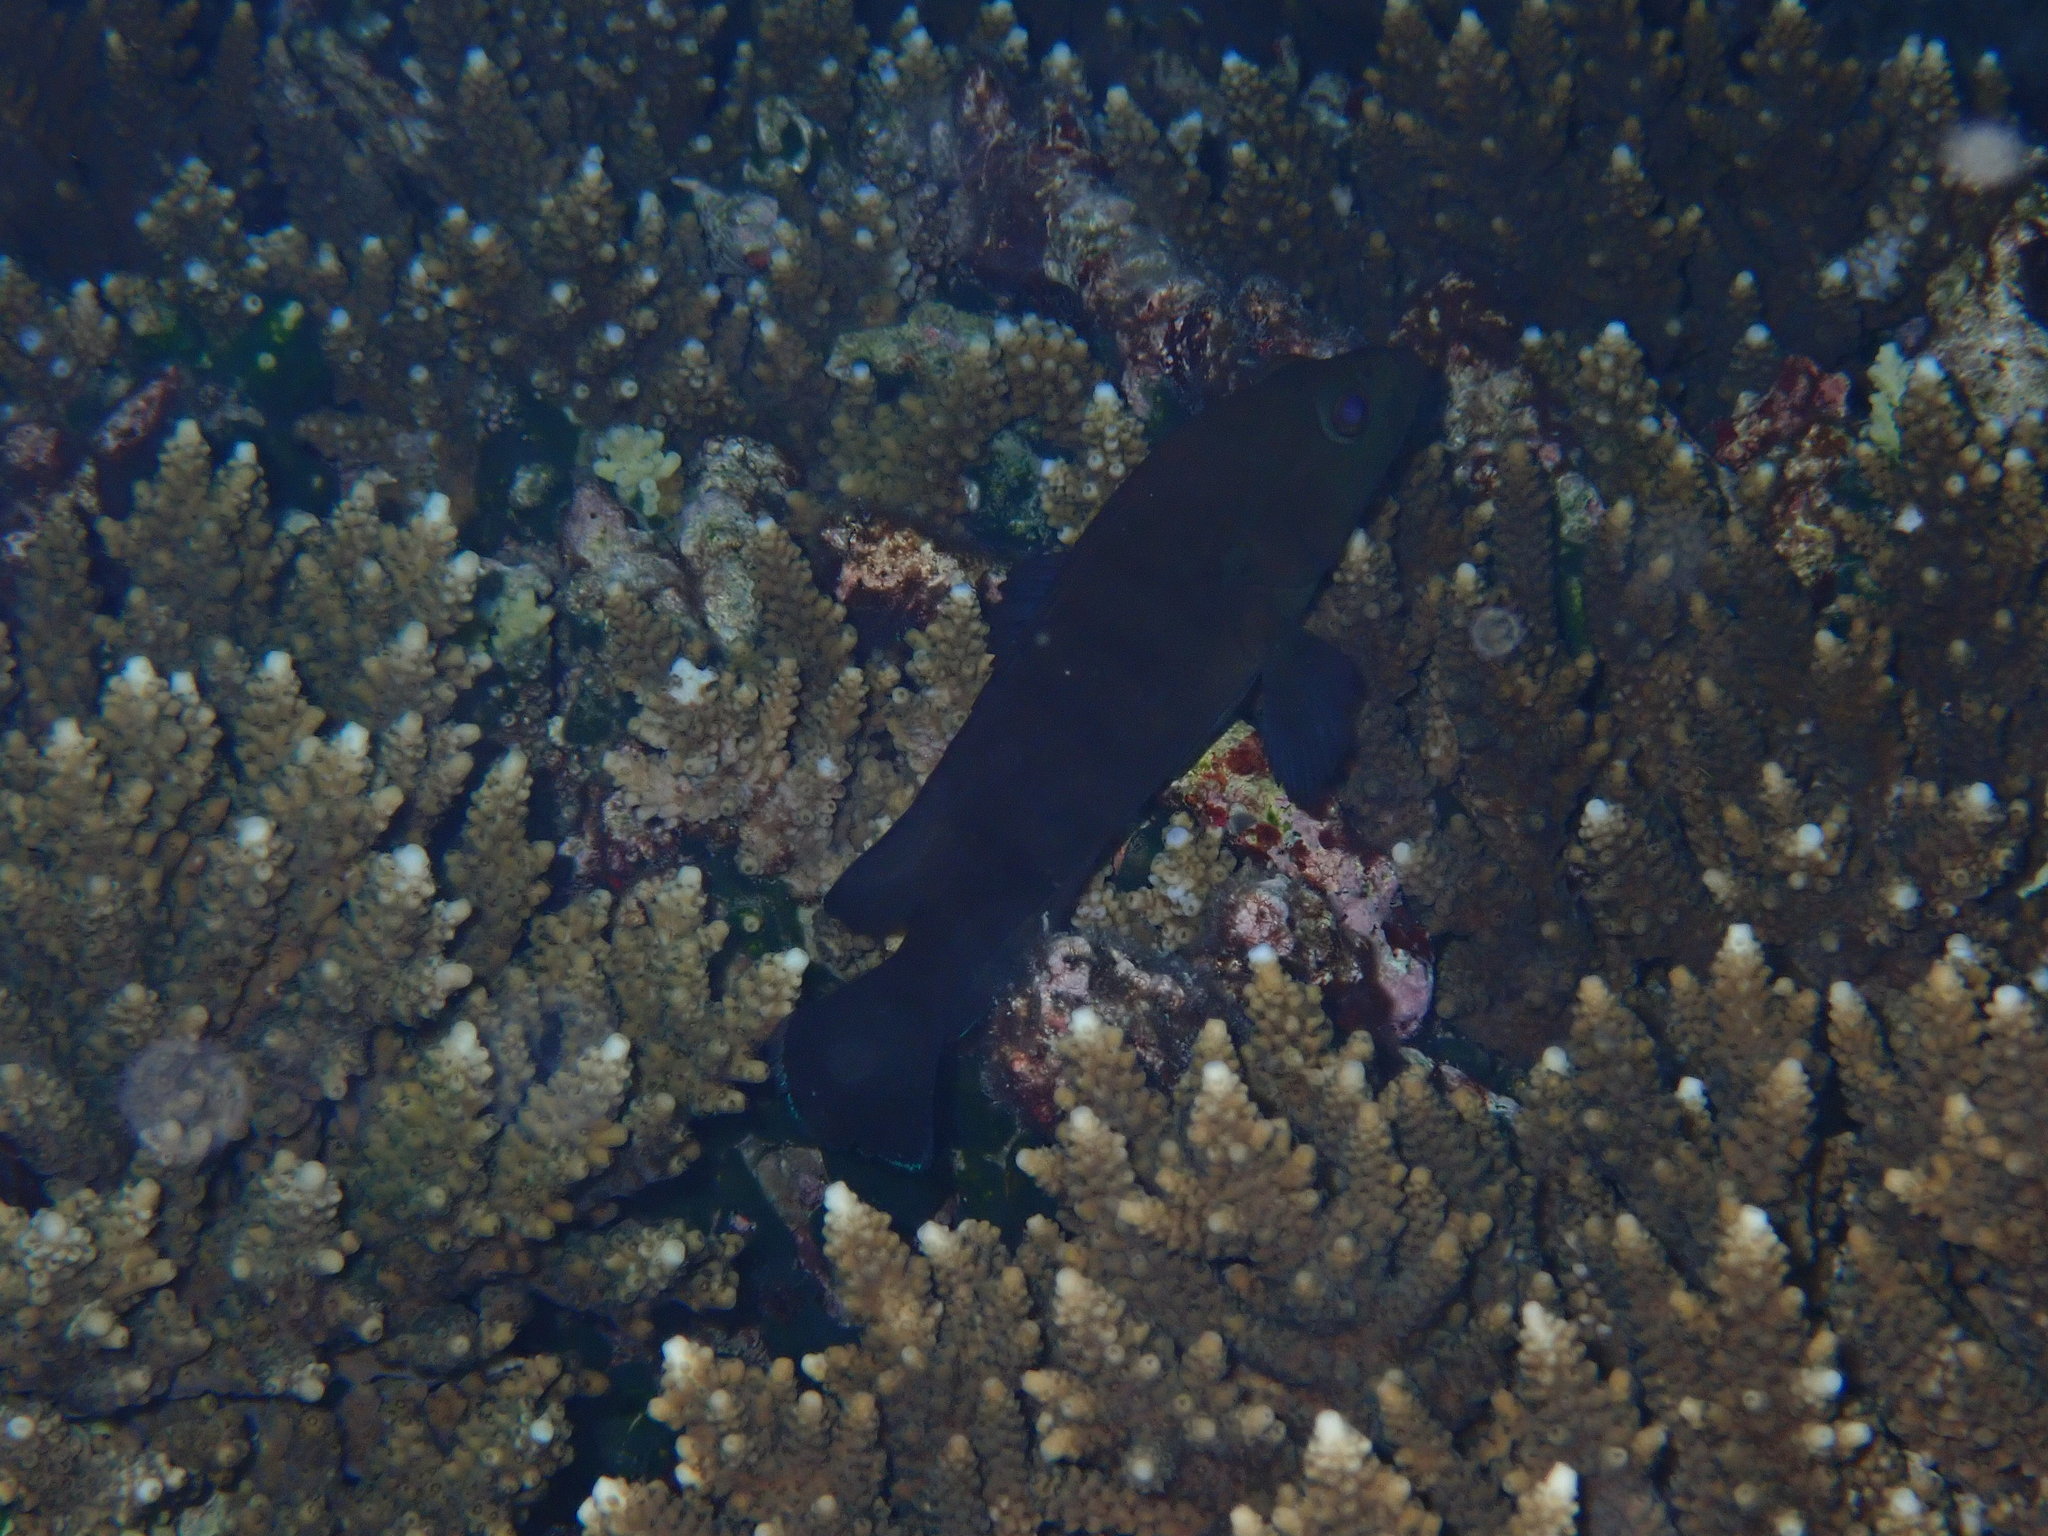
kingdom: Animalia
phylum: Chordata
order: Perciformes
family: Serranidae
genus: Cephalopholis
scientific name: Cephalopholis boenak
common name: Chocolate hind
